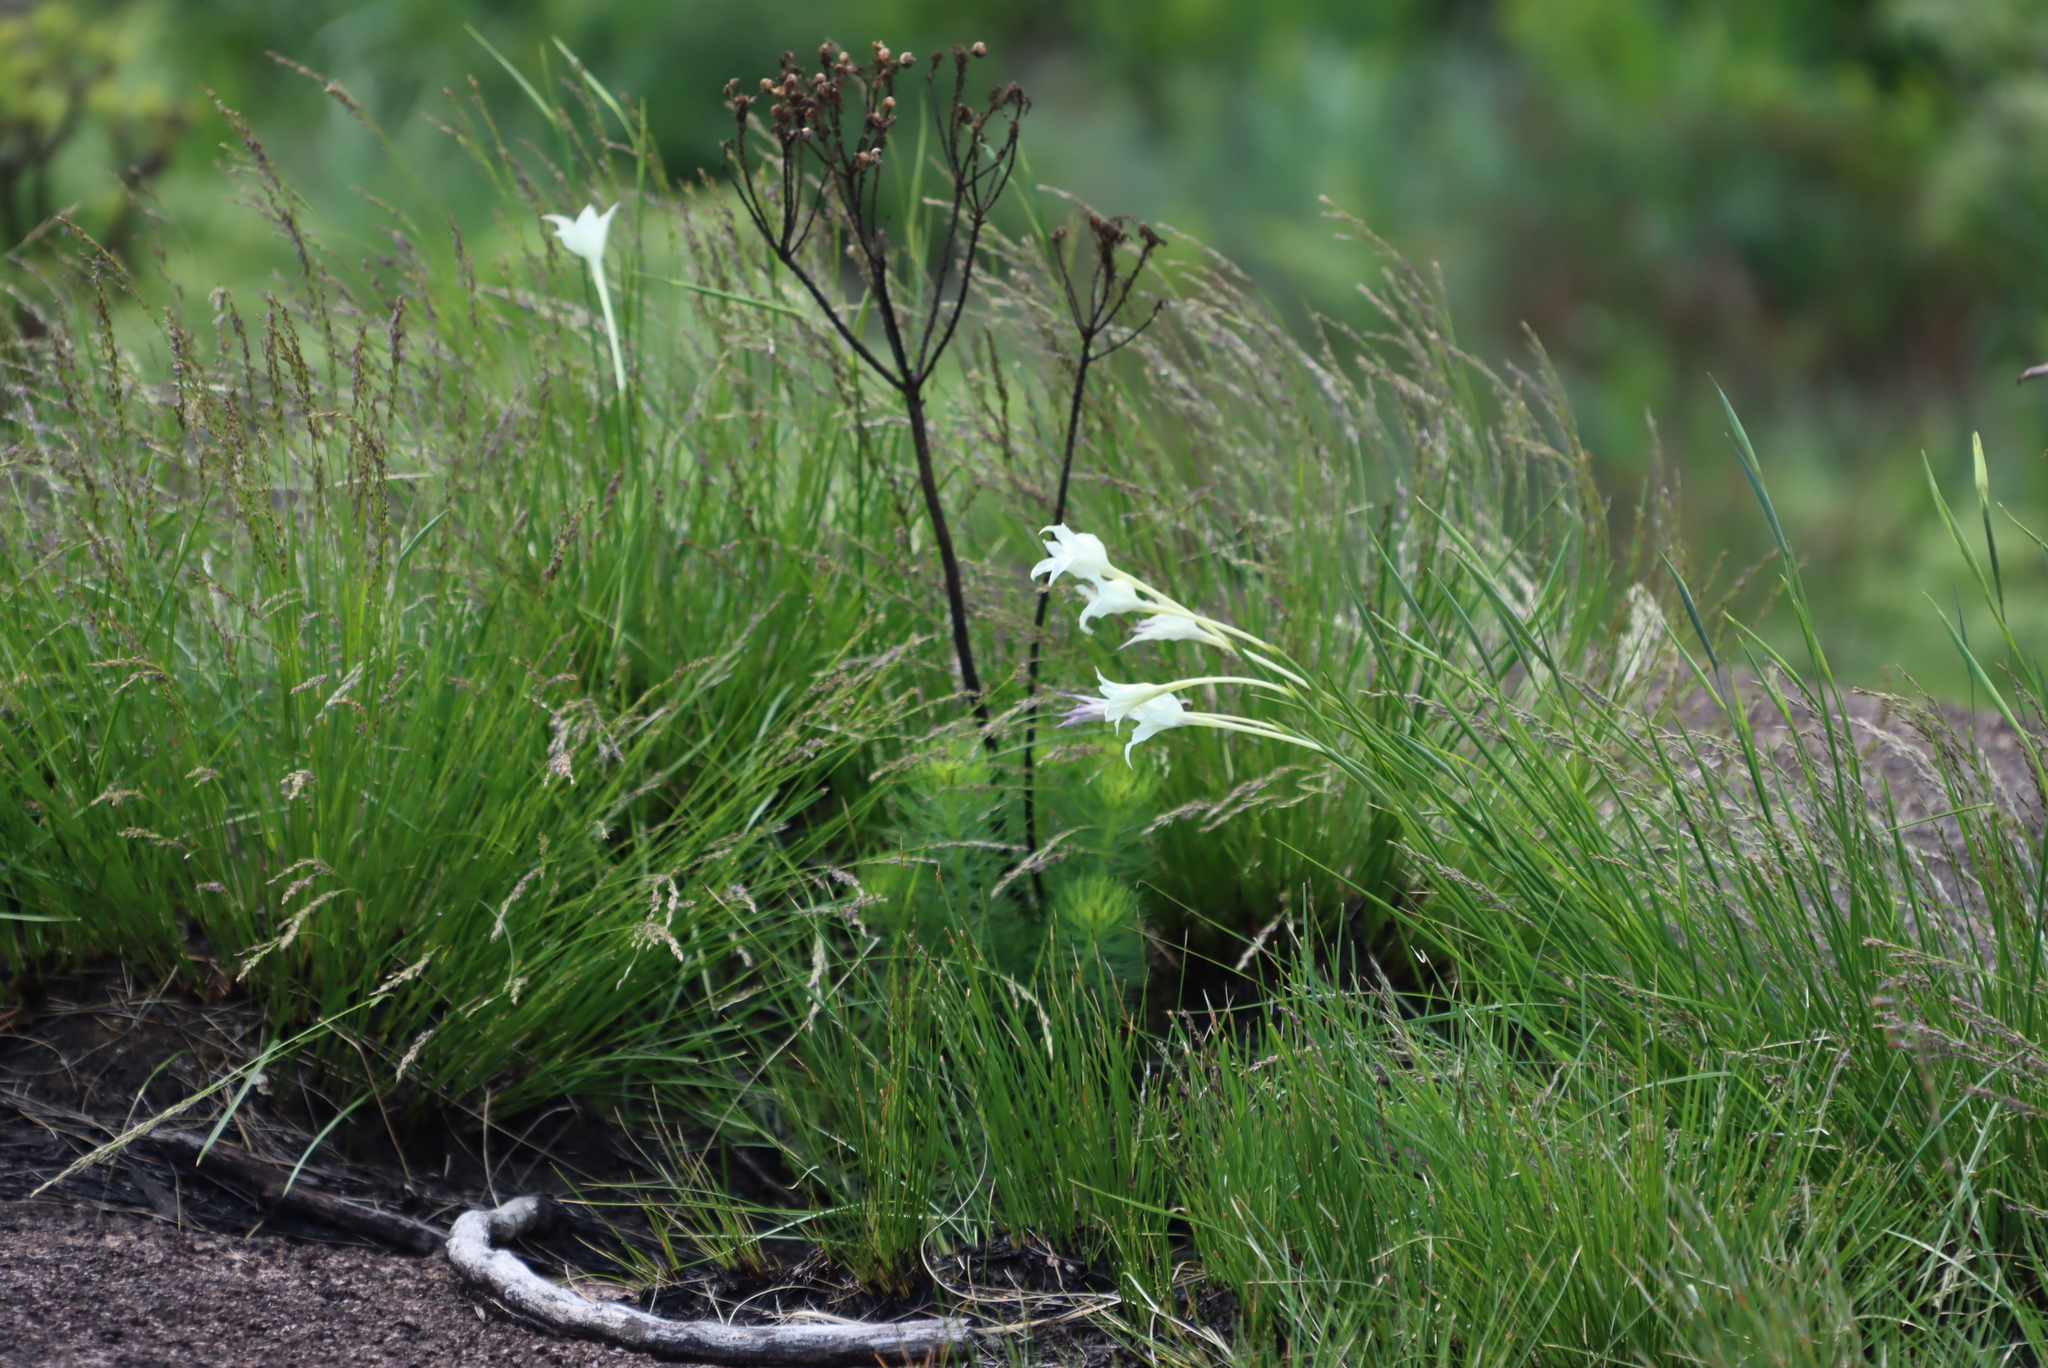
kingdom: Plantae
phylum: Tracheophyta
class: Liliopsida
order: Asparagales
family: Iridaceae
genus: Gladiolus
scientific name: Gladiolus longicollis
